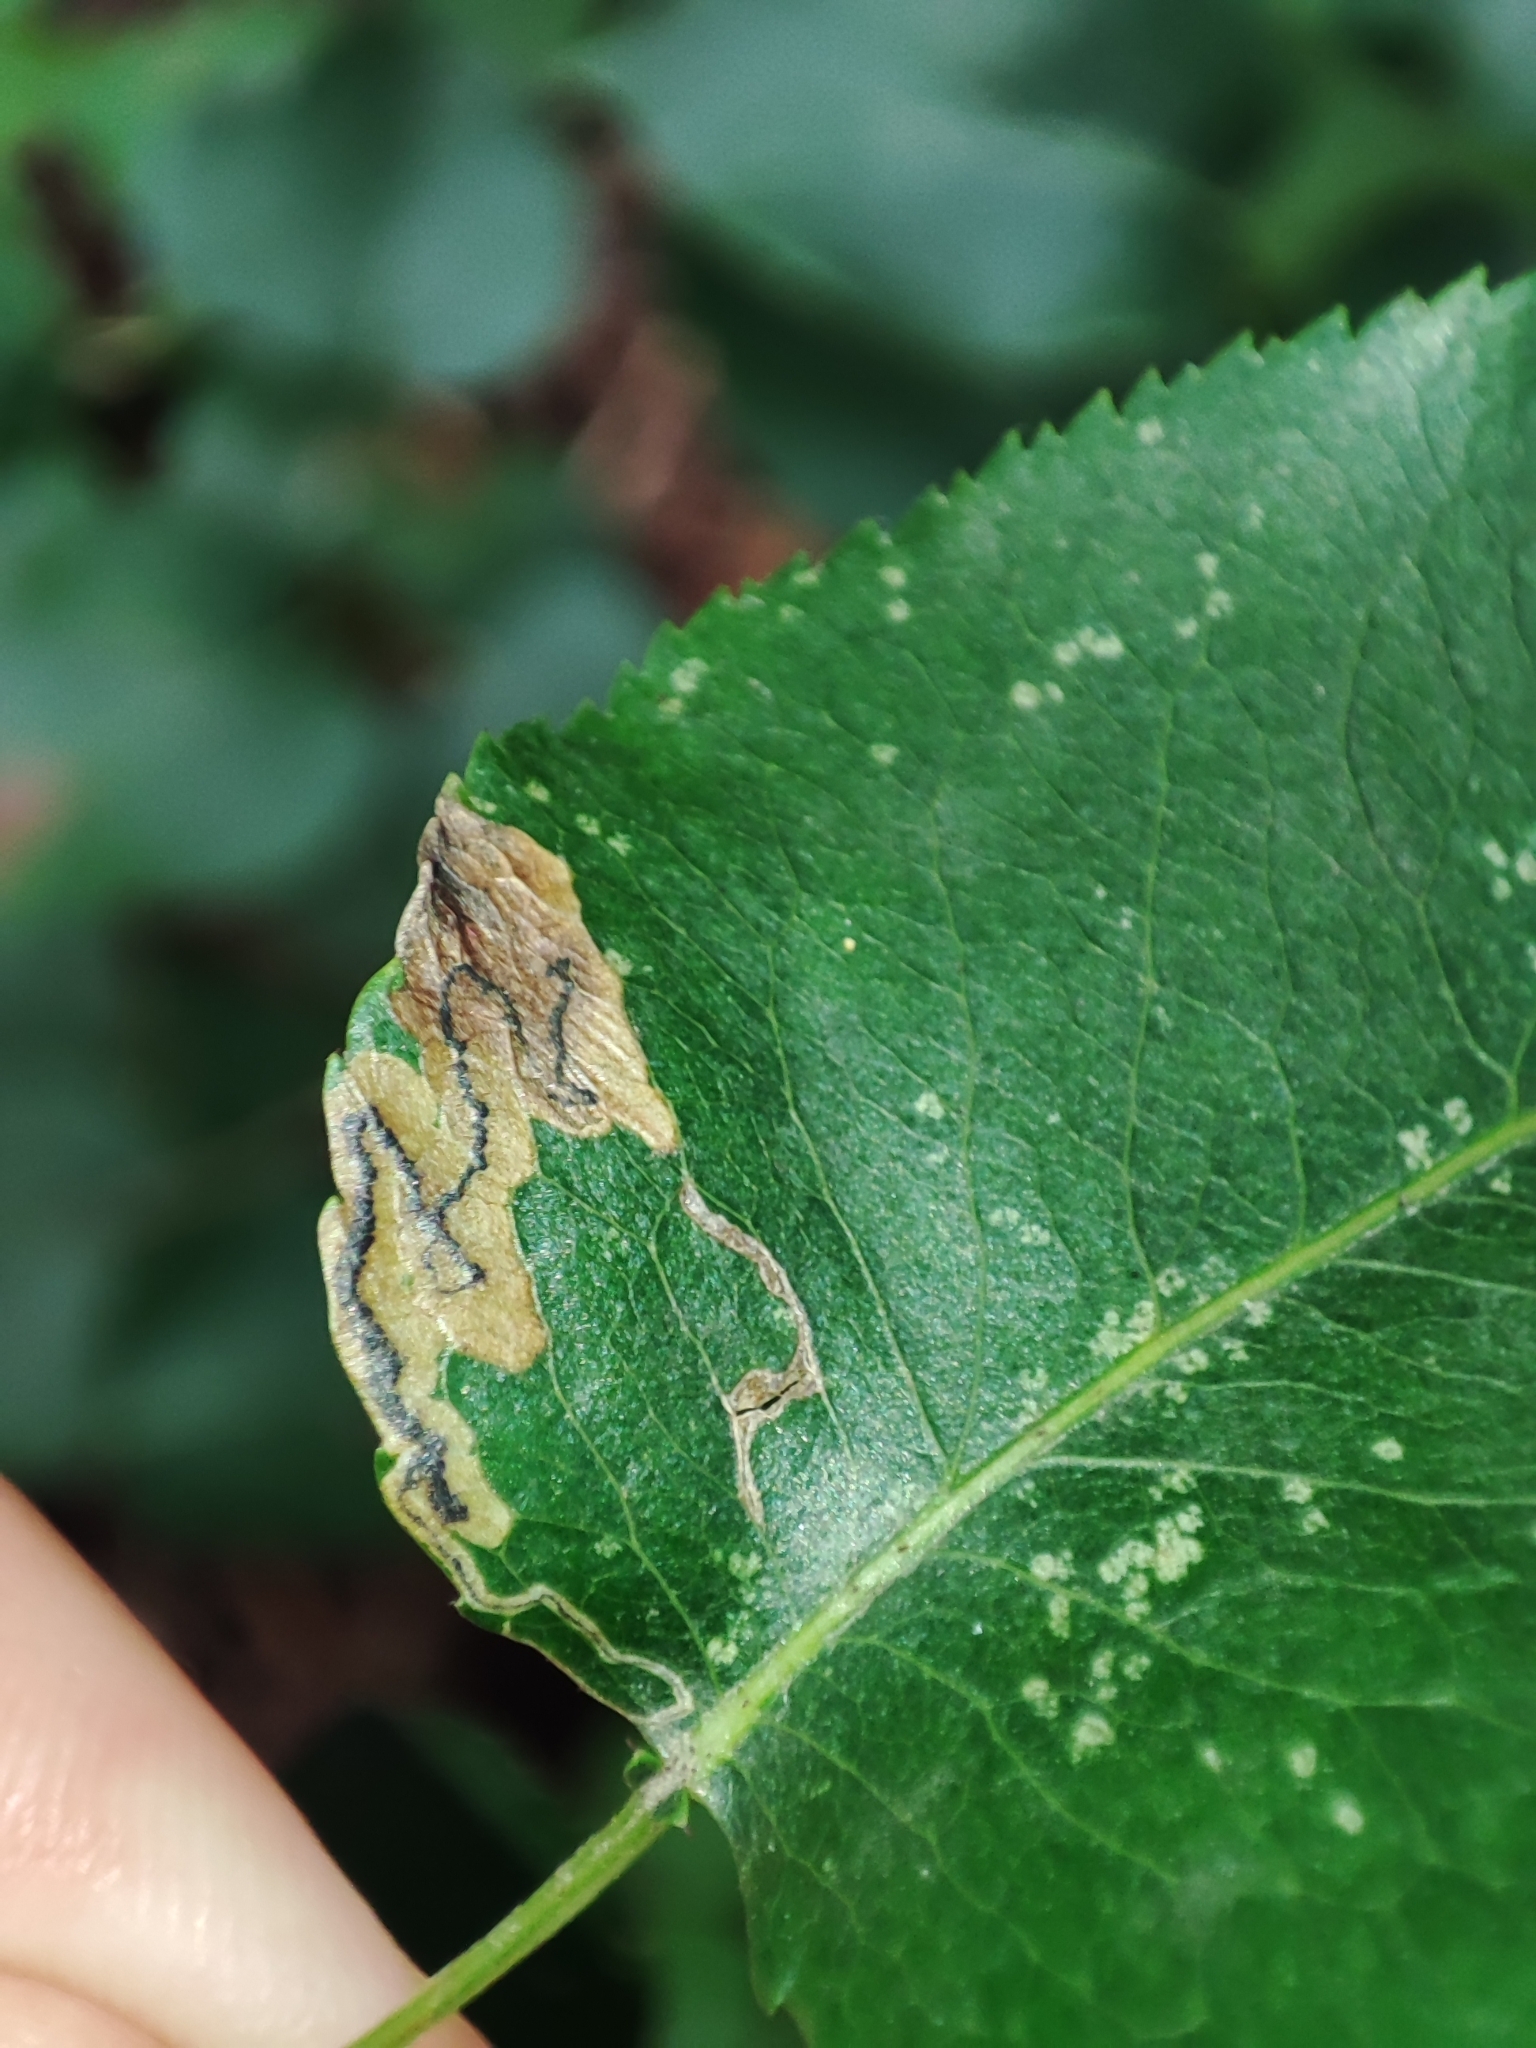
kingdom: Plantae
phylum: Tracheophyta
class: Magnoliopsida
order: Rosales
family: Rosaceae
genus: Pyrus
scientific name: Pyrus communis
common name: Pear
